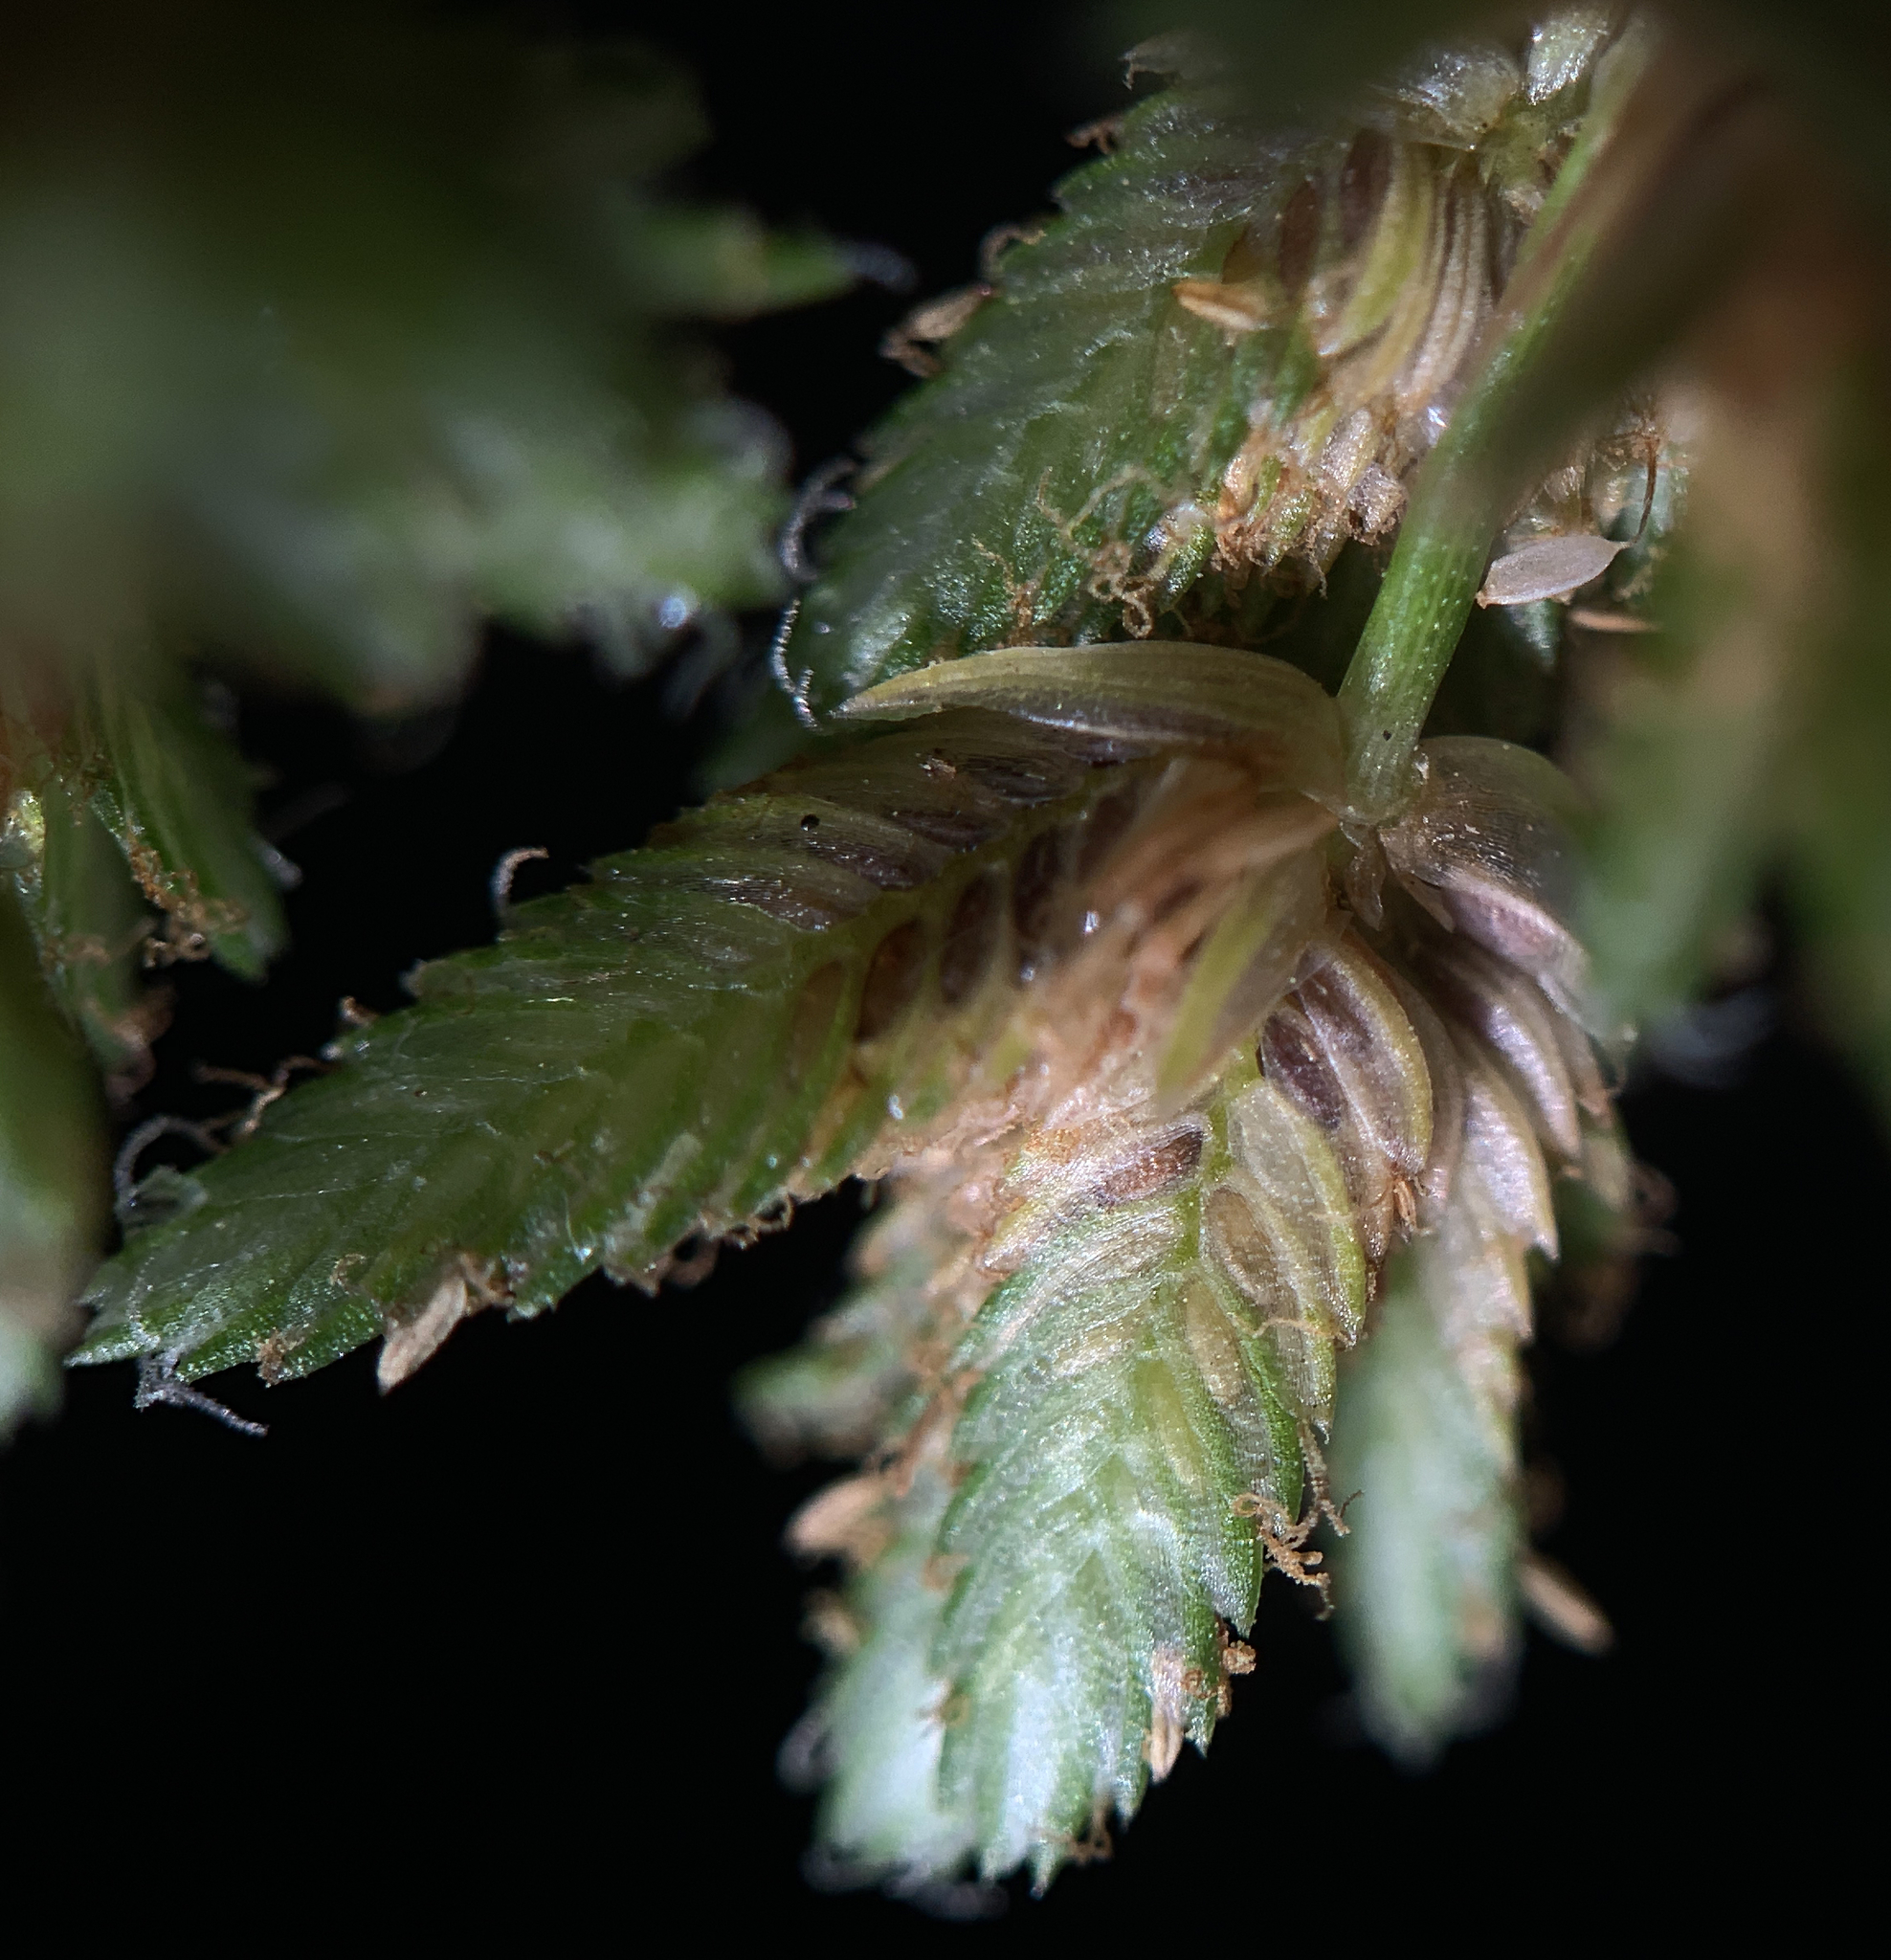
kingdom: Plantae
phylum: Tracheophyta
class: Liliopsida
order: Poales
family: Cyperaceae
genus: Cyperus
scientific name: Cyperus surinamensis
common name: Tropical flat sedge
